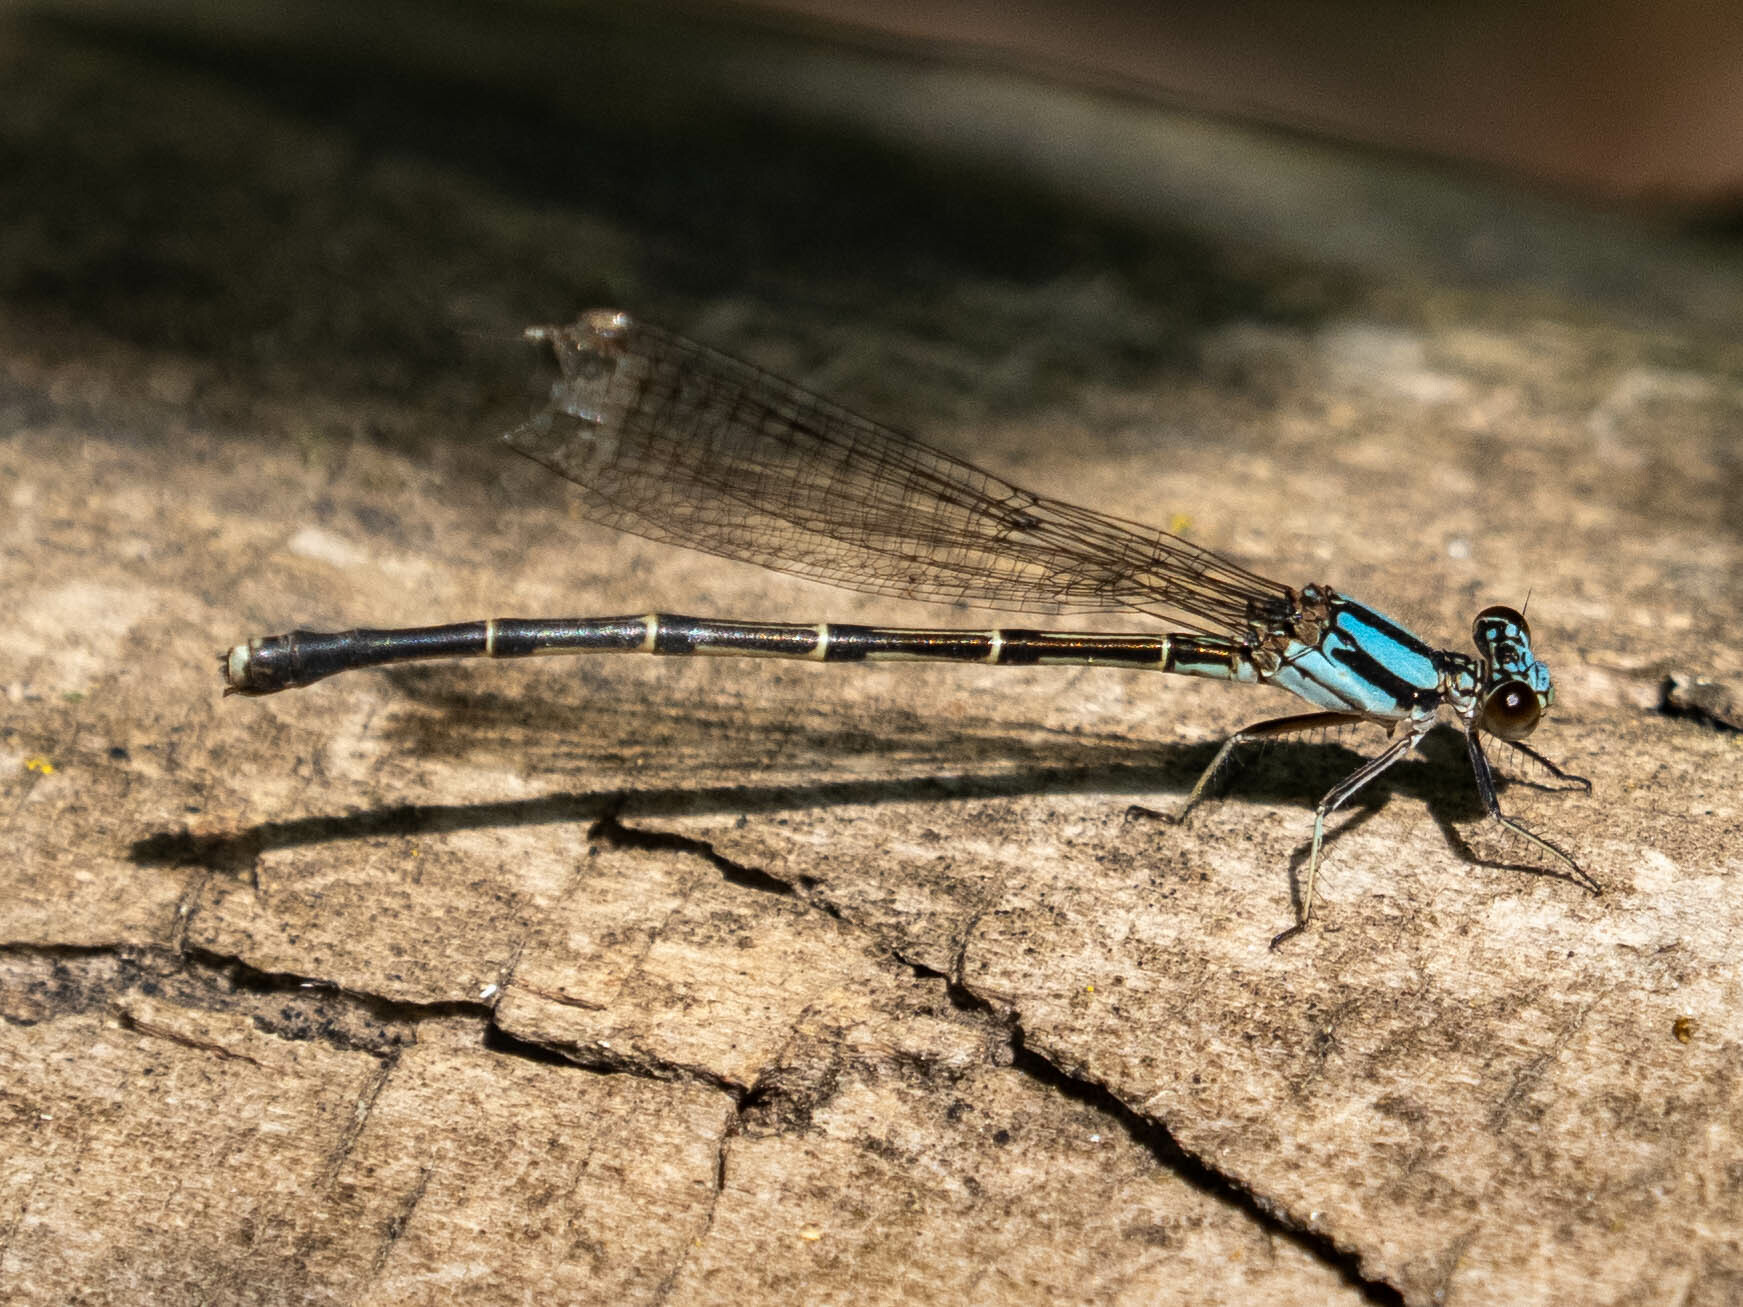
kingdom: Animalia
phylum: Arthropoda
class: Insecta
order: Odonata
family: Coenagrionidae
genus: Argia
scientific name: Argia tibialis
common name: Blue-tipped dancer
